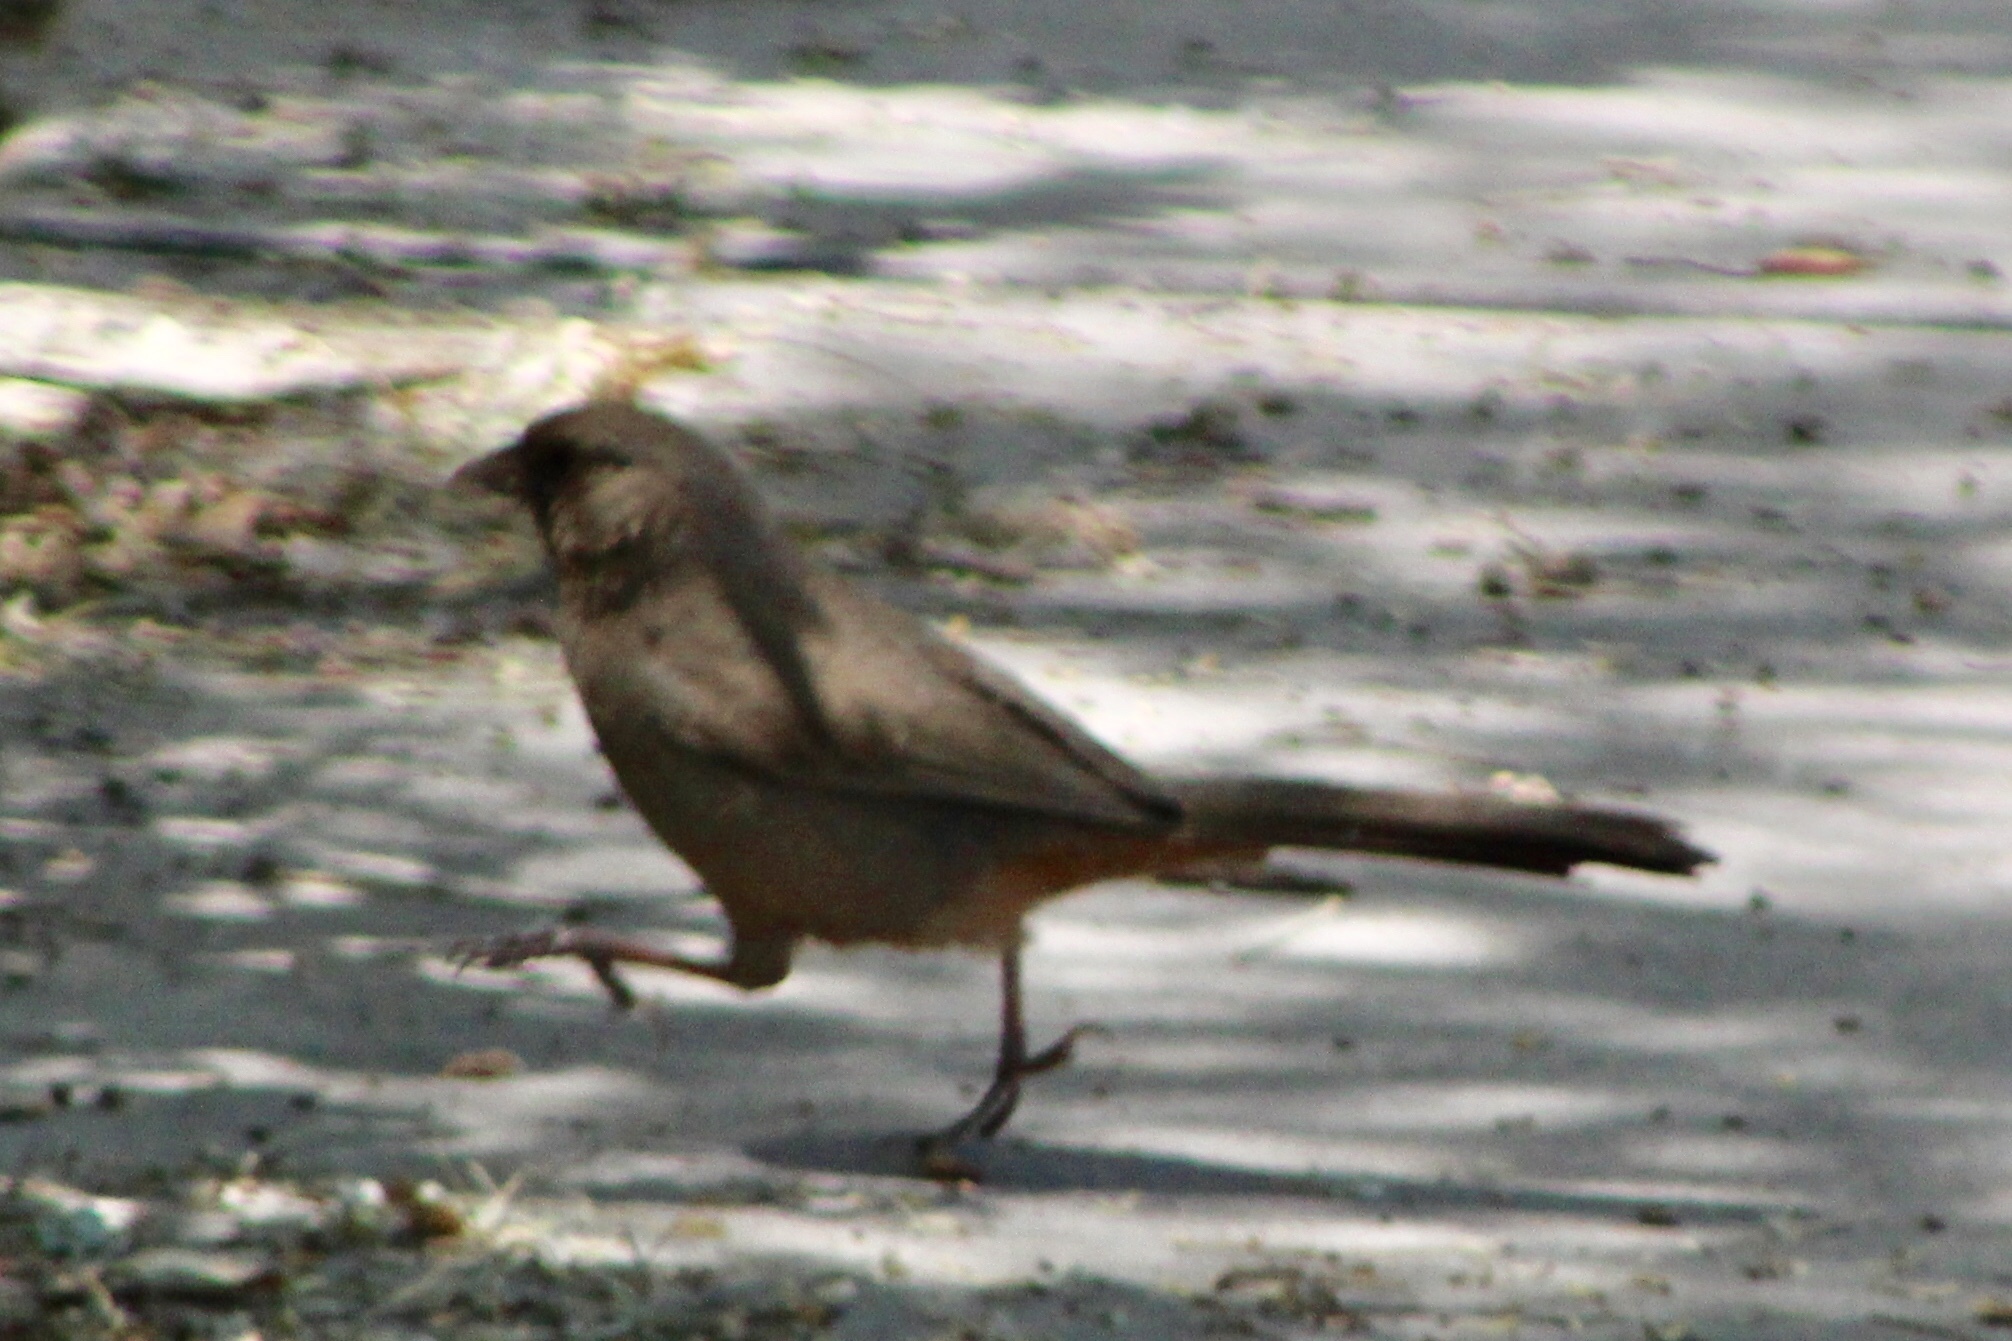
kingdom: Animalia
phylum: Chordata
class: Aves
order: Passeriformes
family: Passerellidae
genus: Melozone
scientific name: Melozone aberti
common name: Abert's towhee
